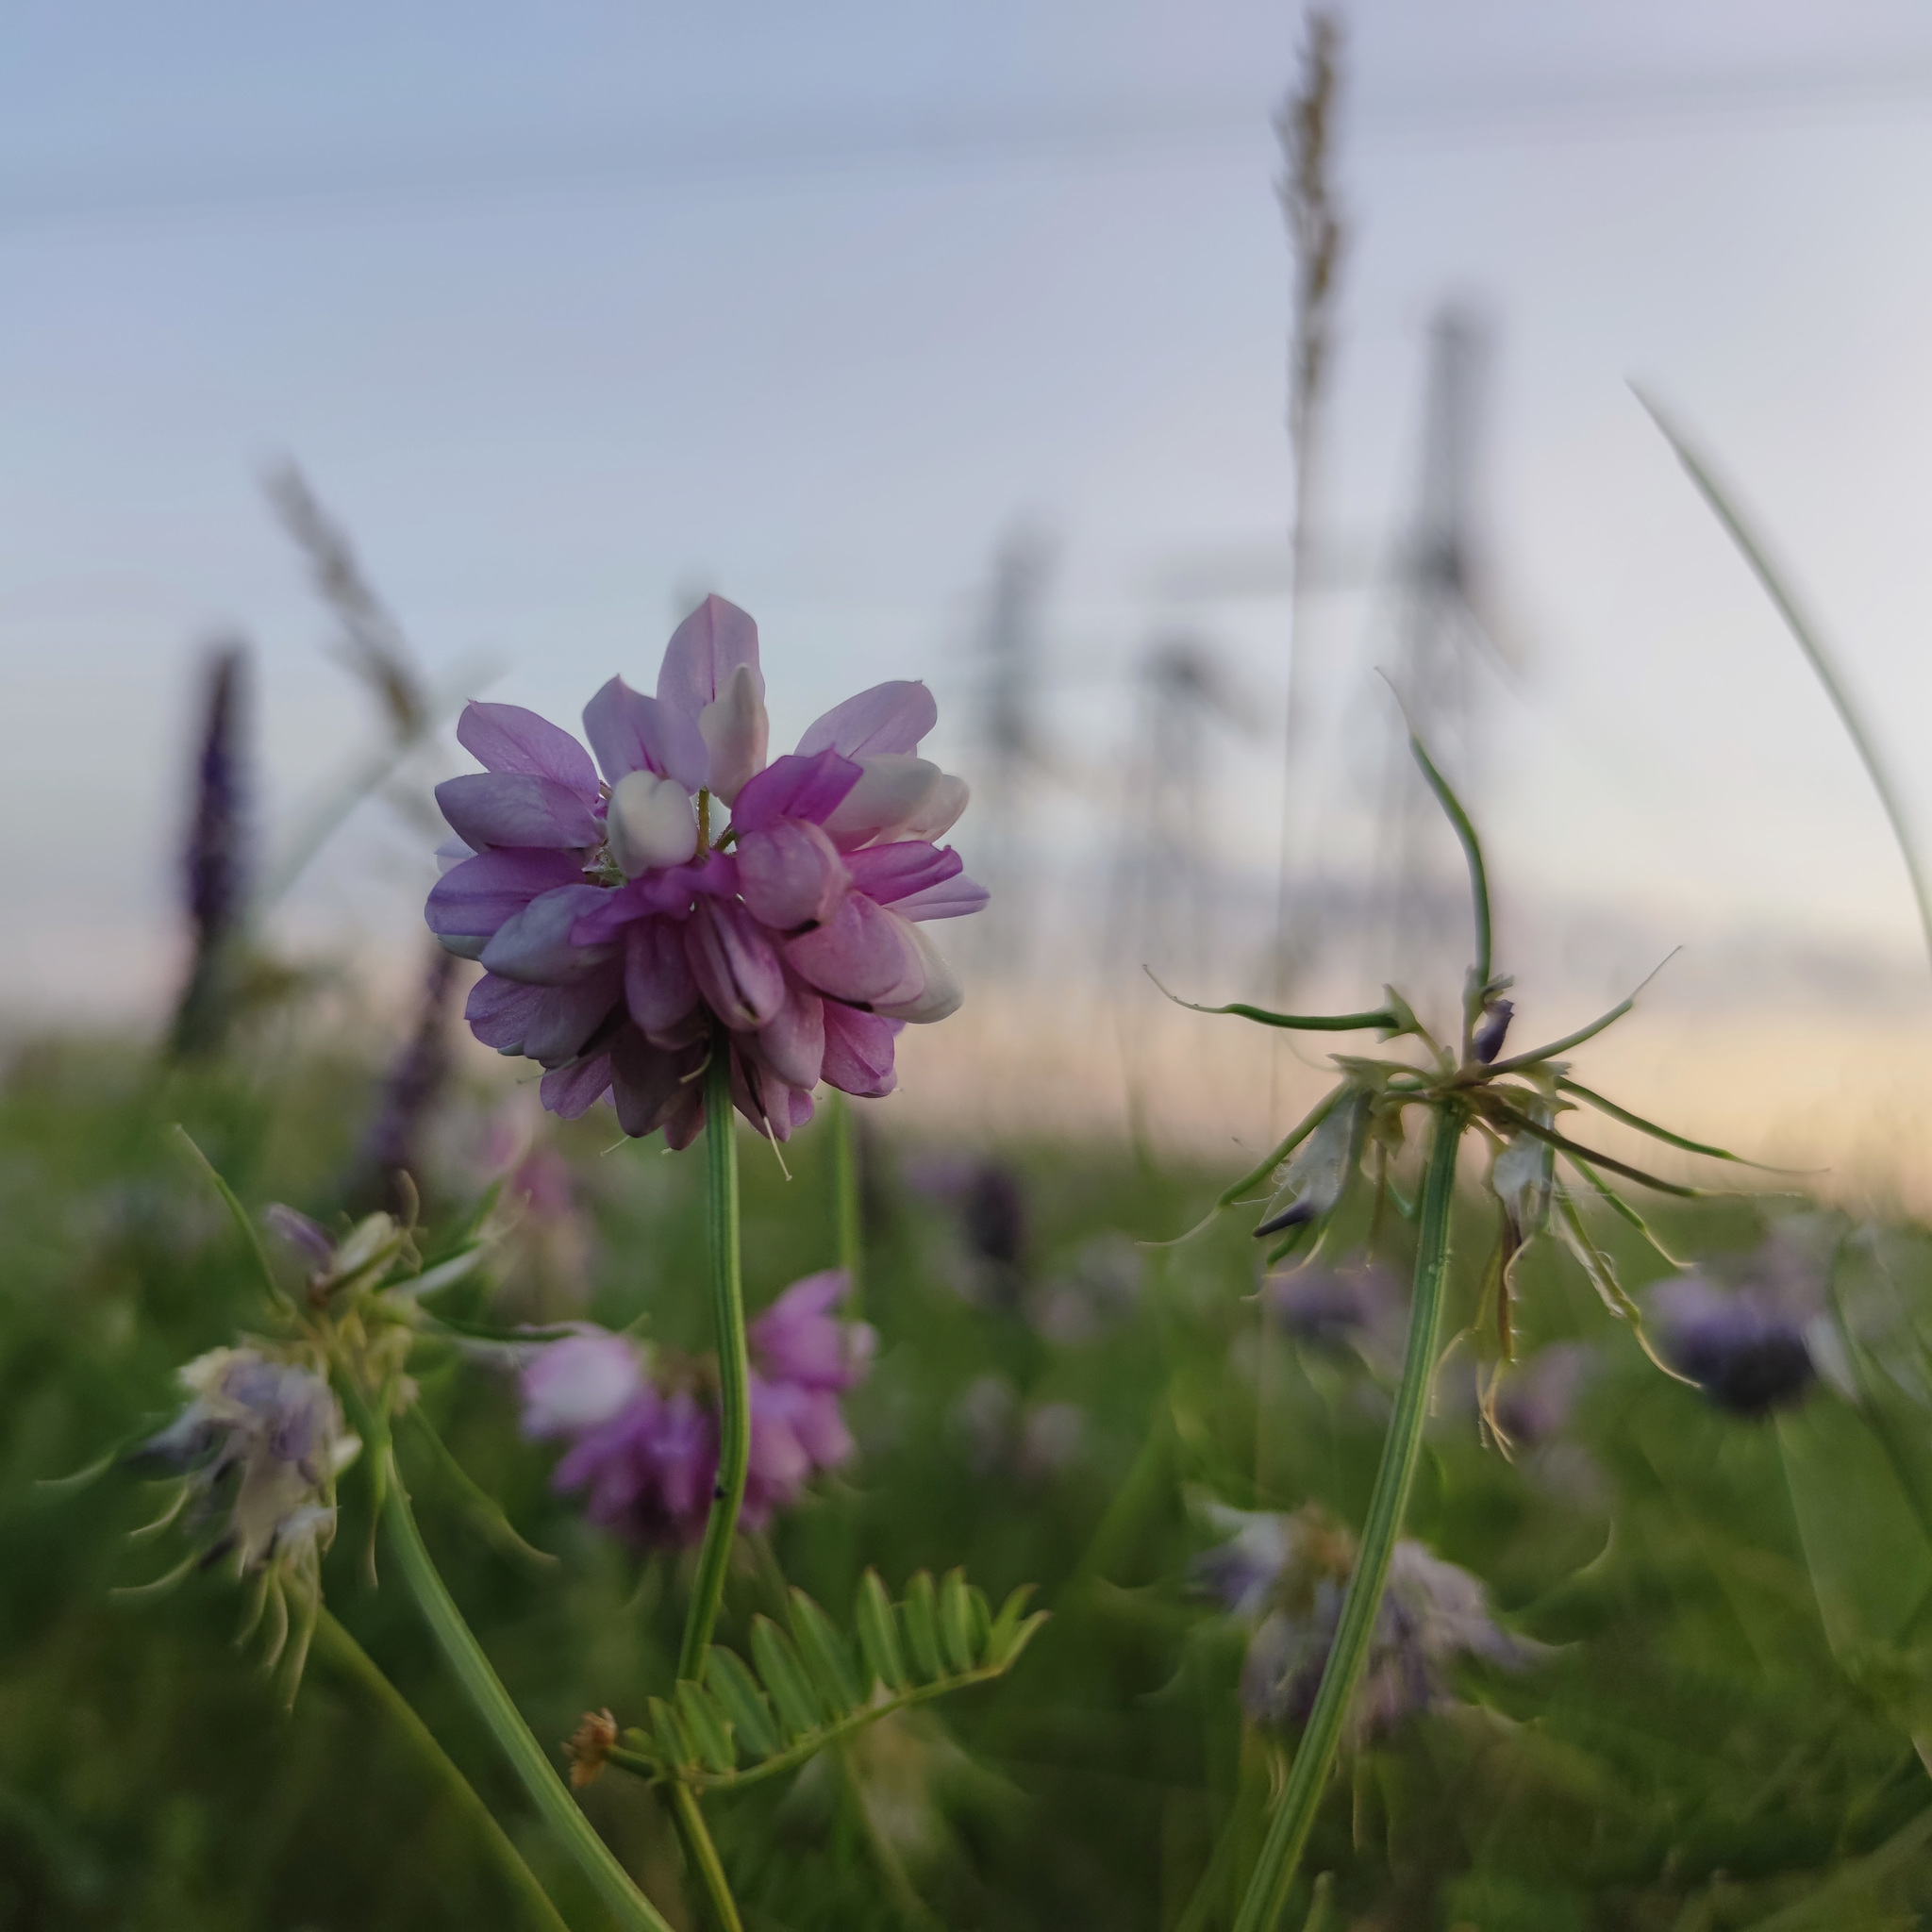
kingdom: Plantae
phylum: Tracheophyta
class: Magnoliopsida
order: Fabales
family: Fabaceae
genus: Coronilla
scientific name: Coronilla varia
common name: Crownvetch
